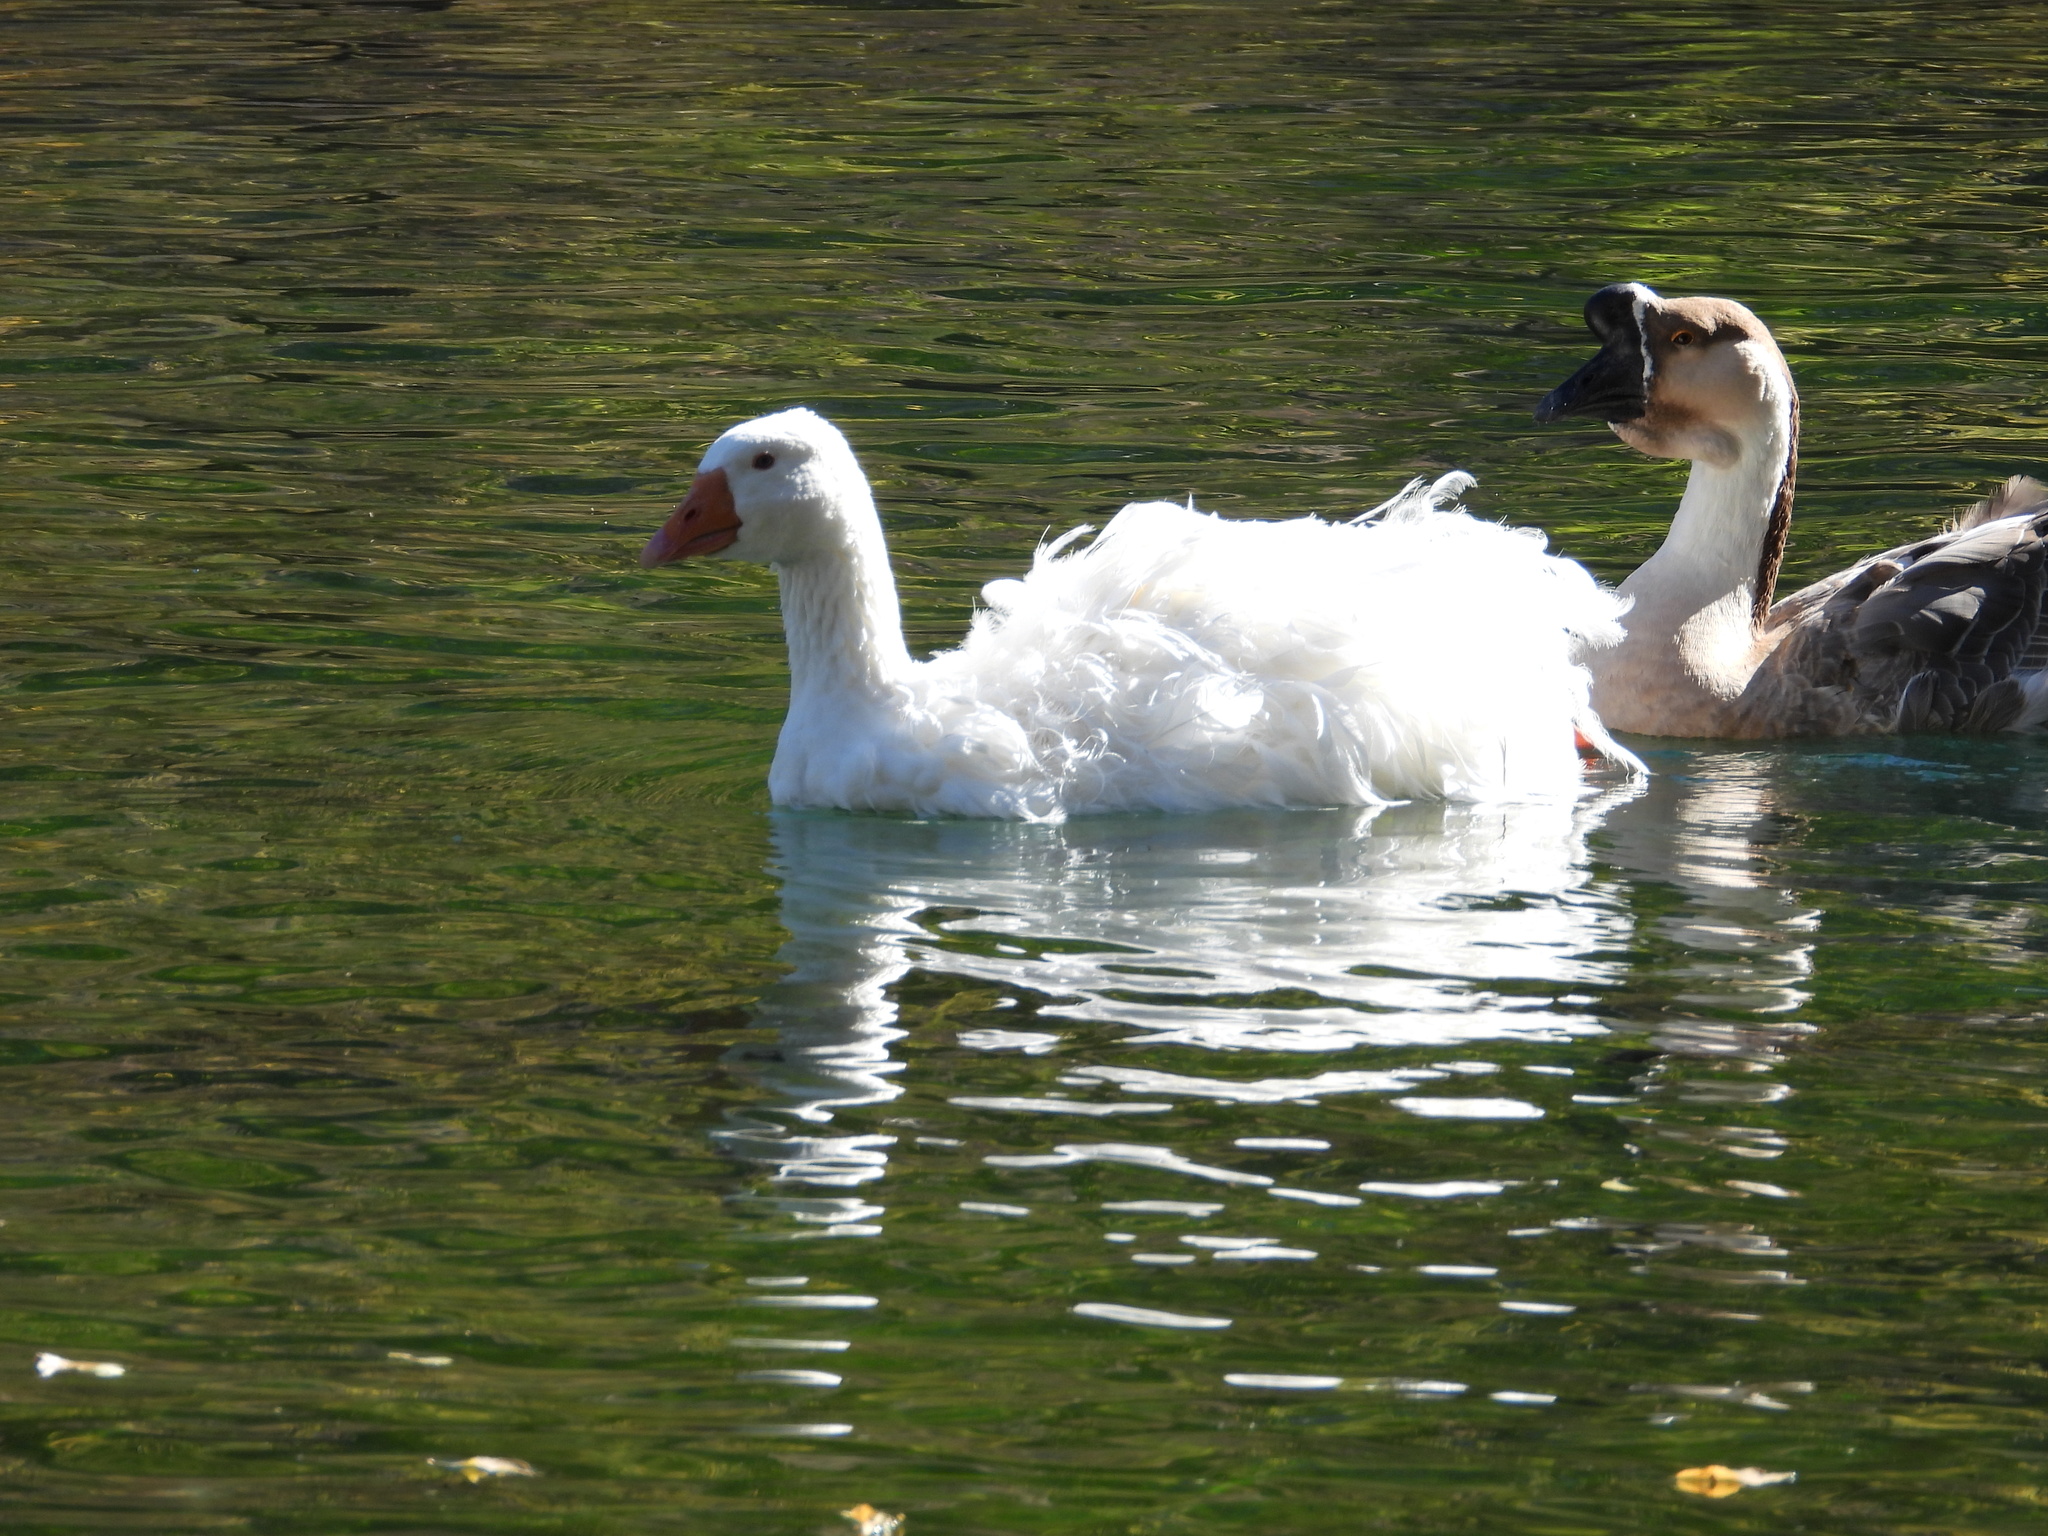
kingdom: Animalia
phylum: Chordata
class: Aves
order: Anseriformes
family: Anatidae
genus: Anser
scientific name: Anser anser
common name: Greylag goose
